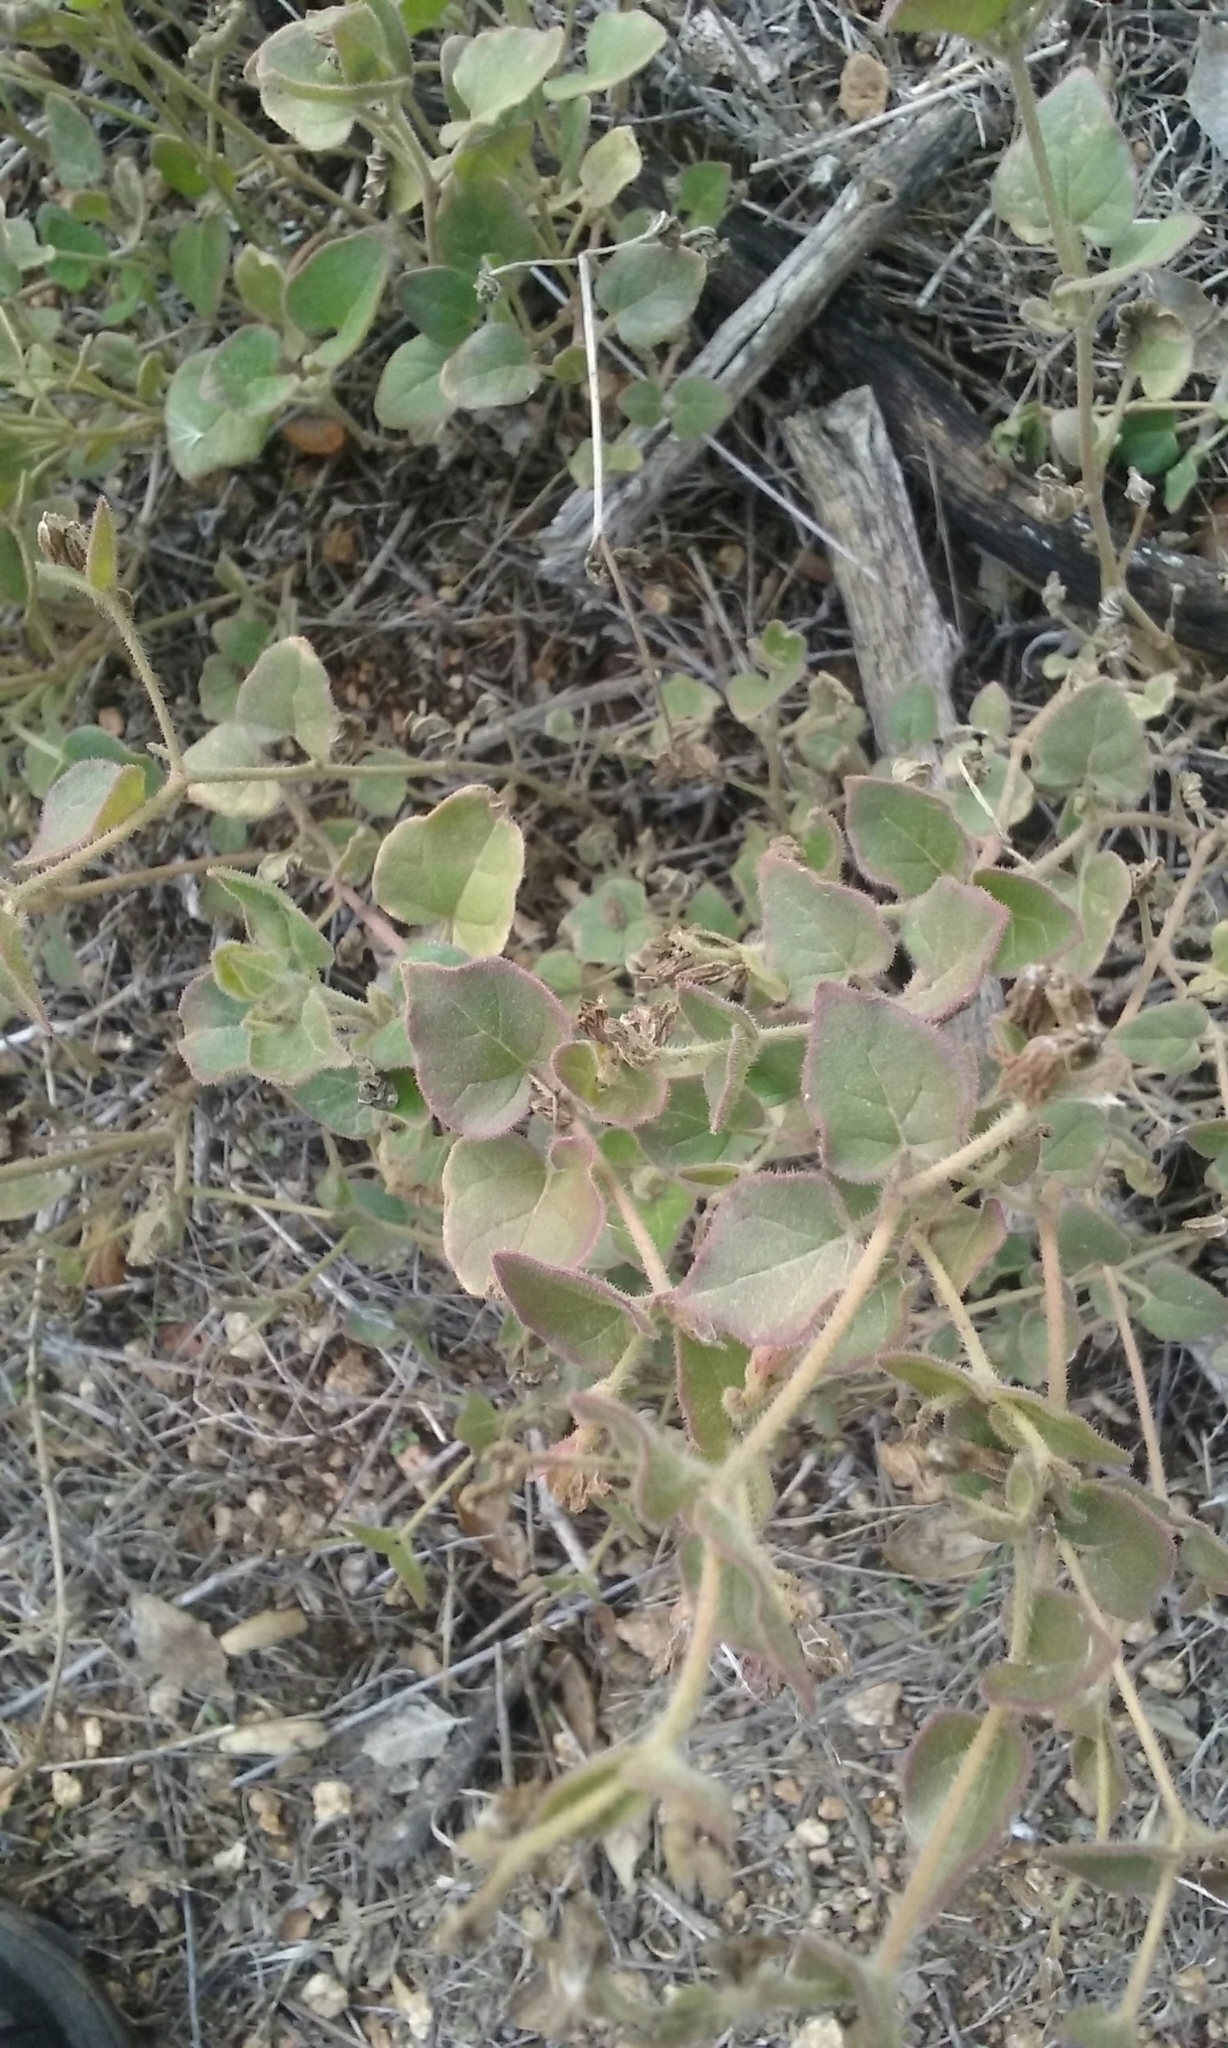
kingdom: Plantae
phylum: Tracheophyta
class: Magnoliopsida
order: Caryophyllales
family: Nyctaginaceae
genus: Mirabilis
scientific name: Mirabilis laevis
